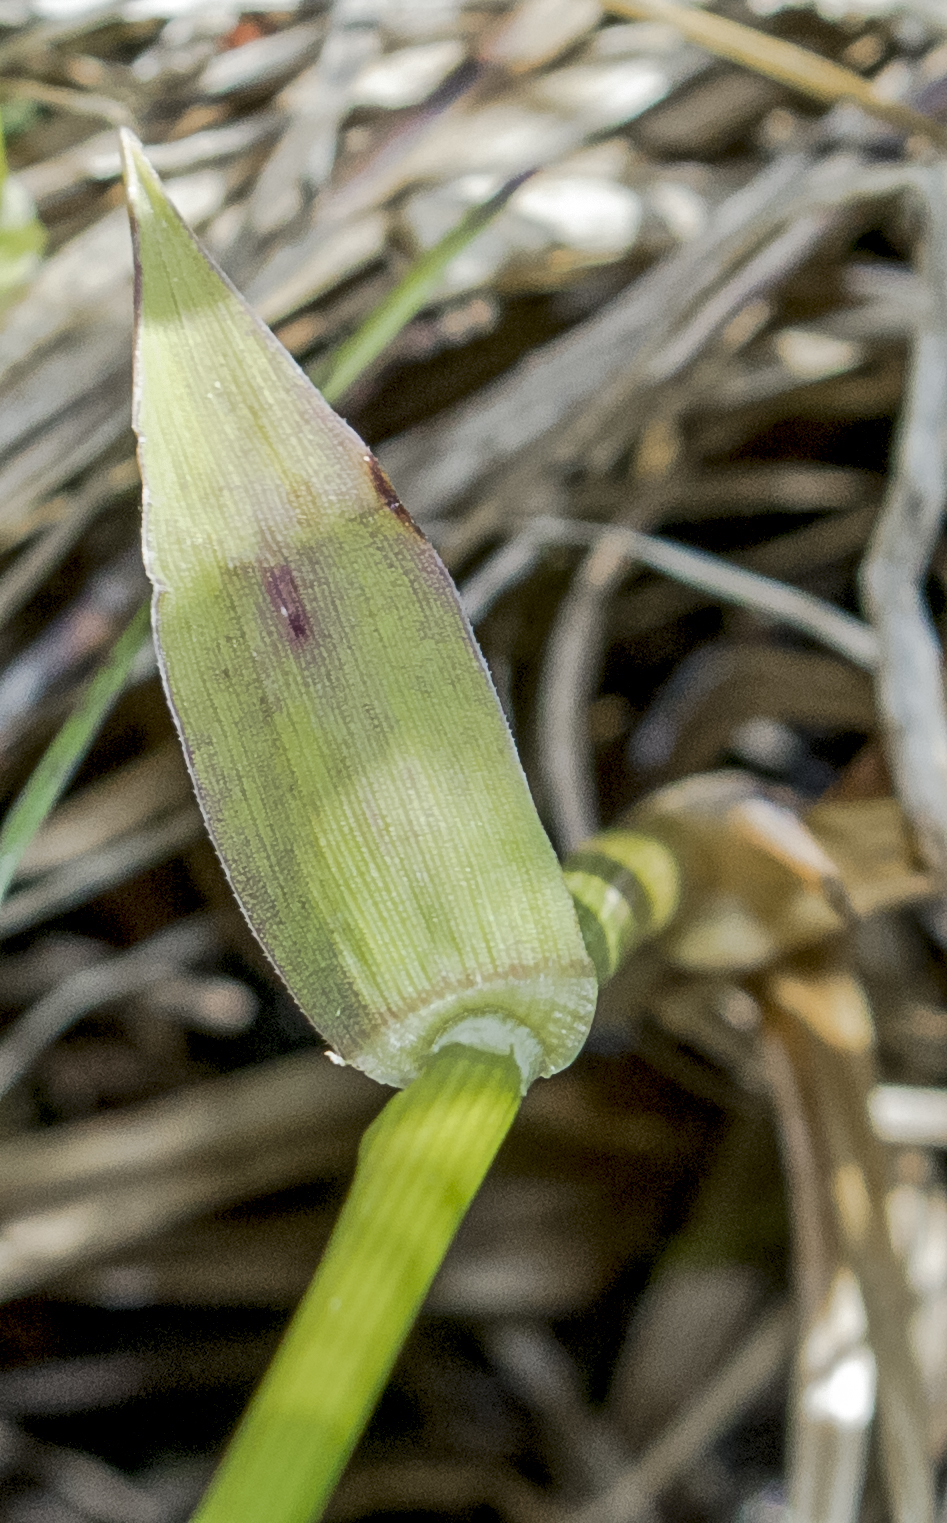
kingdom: Plantae
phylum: Tracheophyta
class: Liliopsida
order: Poales
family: Poaceae
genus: Anthoxanthum
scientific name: Anthoxanthum nitens
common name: Holy grass
